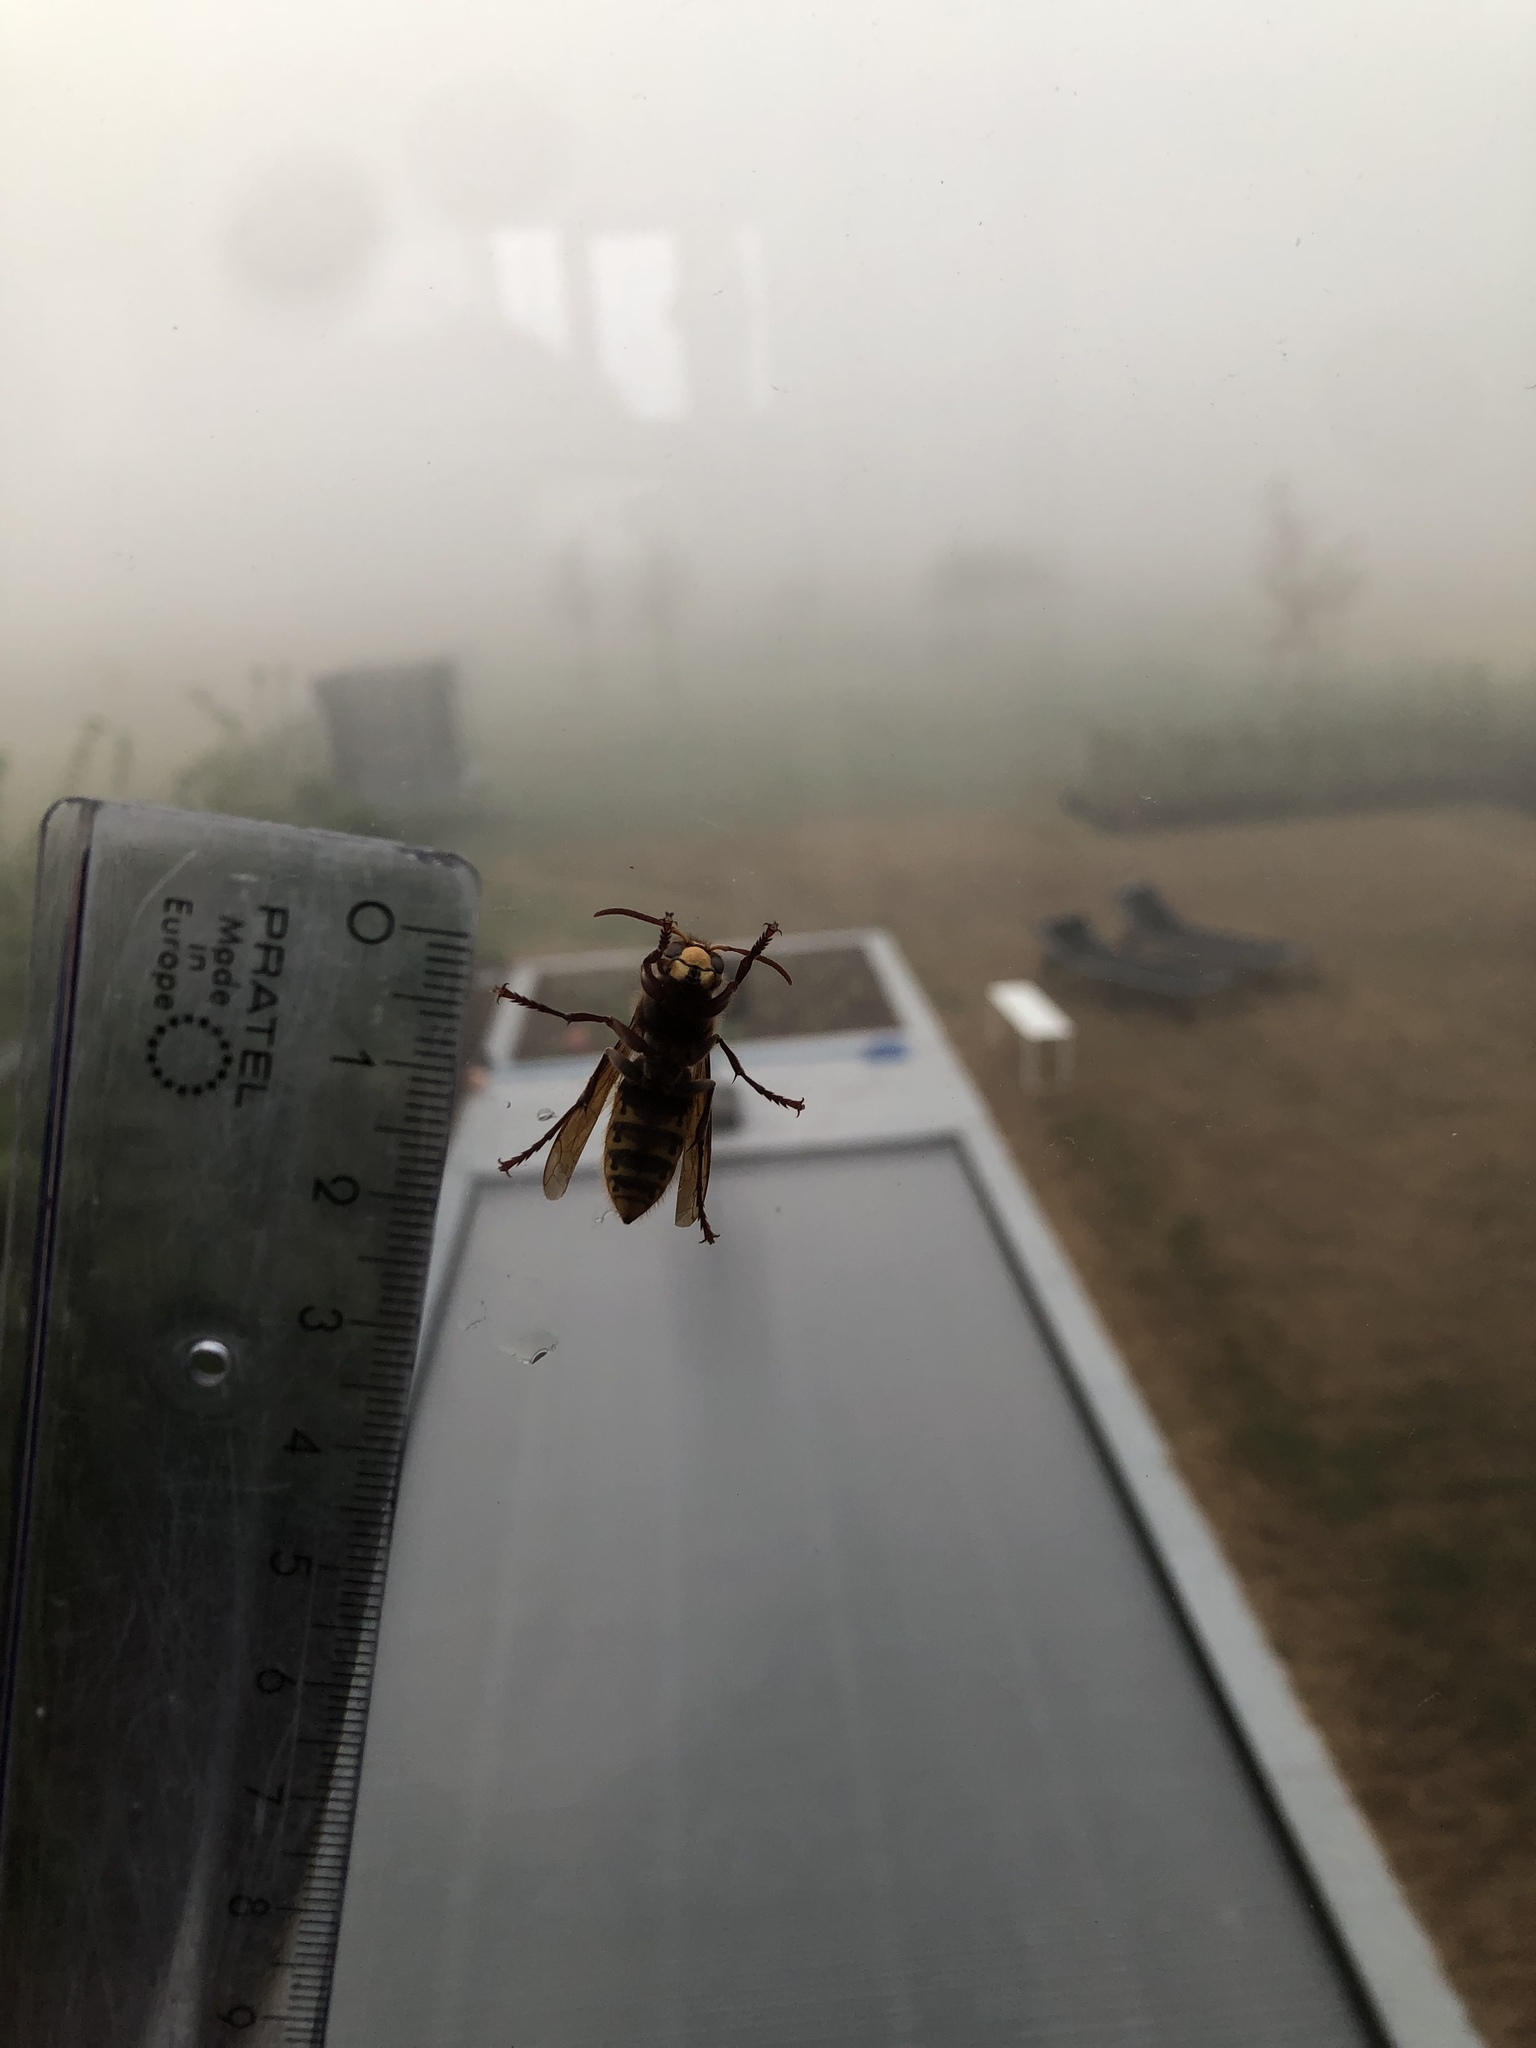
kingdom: Animalia
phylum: Arthropoda
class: Insecta
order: Hymenoptera
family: Vespidae
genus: Vespa
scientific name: Vespa crabro
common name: Hornet
